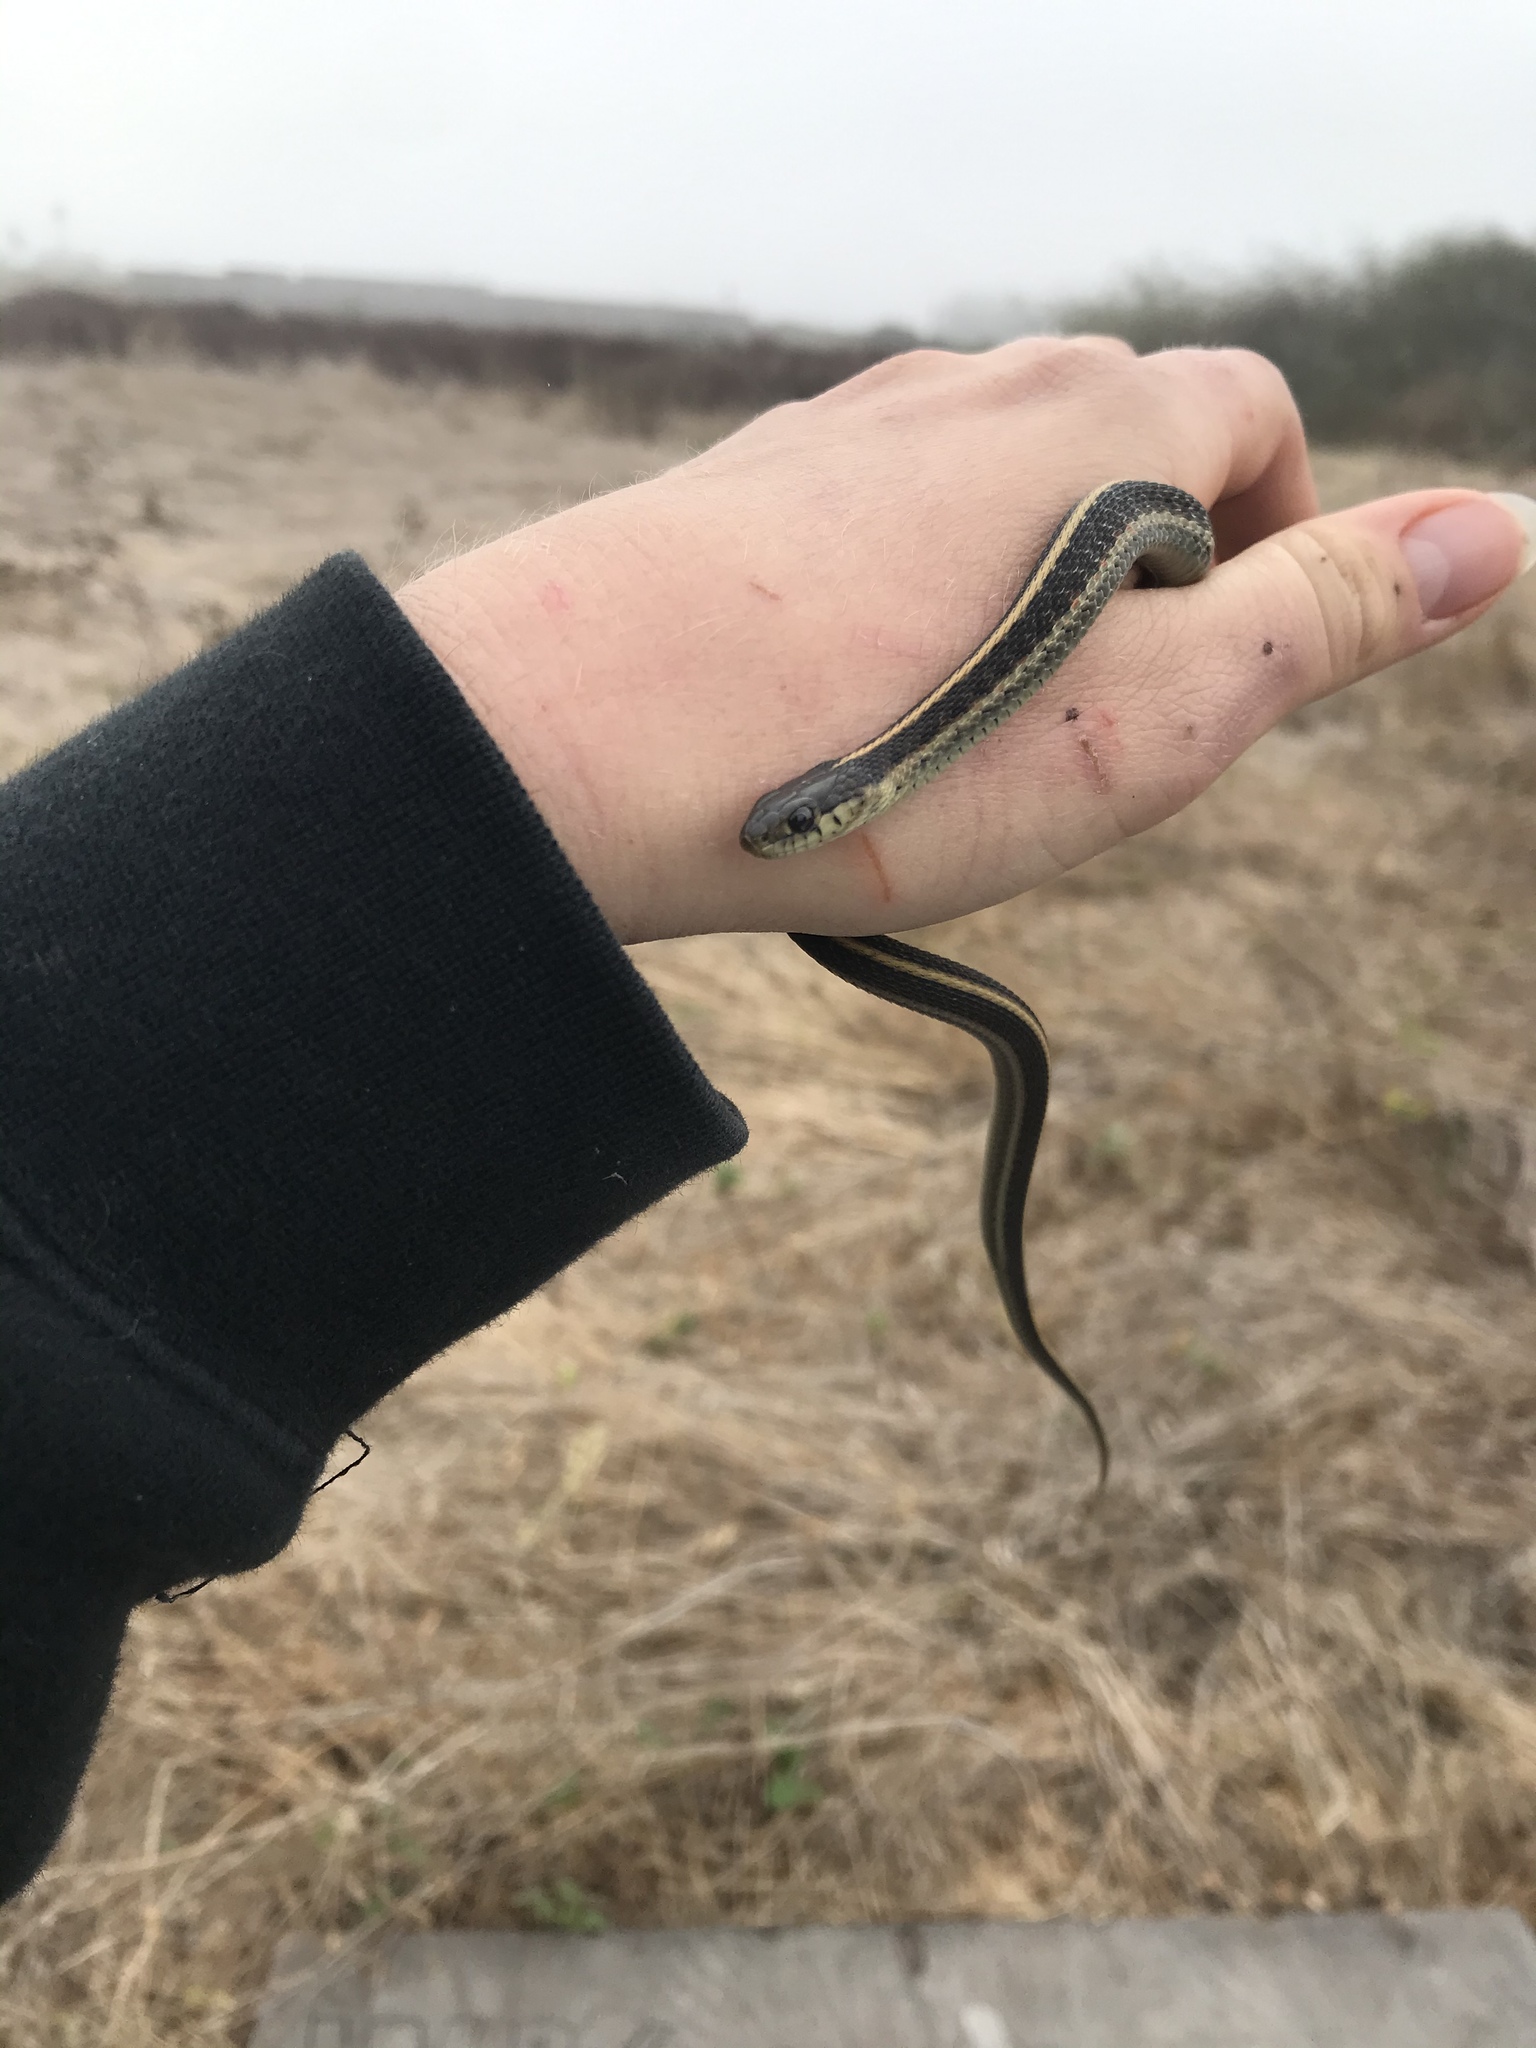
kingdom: Animalia
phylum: Chordata
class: Squamata
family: Colubridae
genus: Thamnophis
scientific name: Thamnophis elegans
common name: Western terrestrial garter snake
